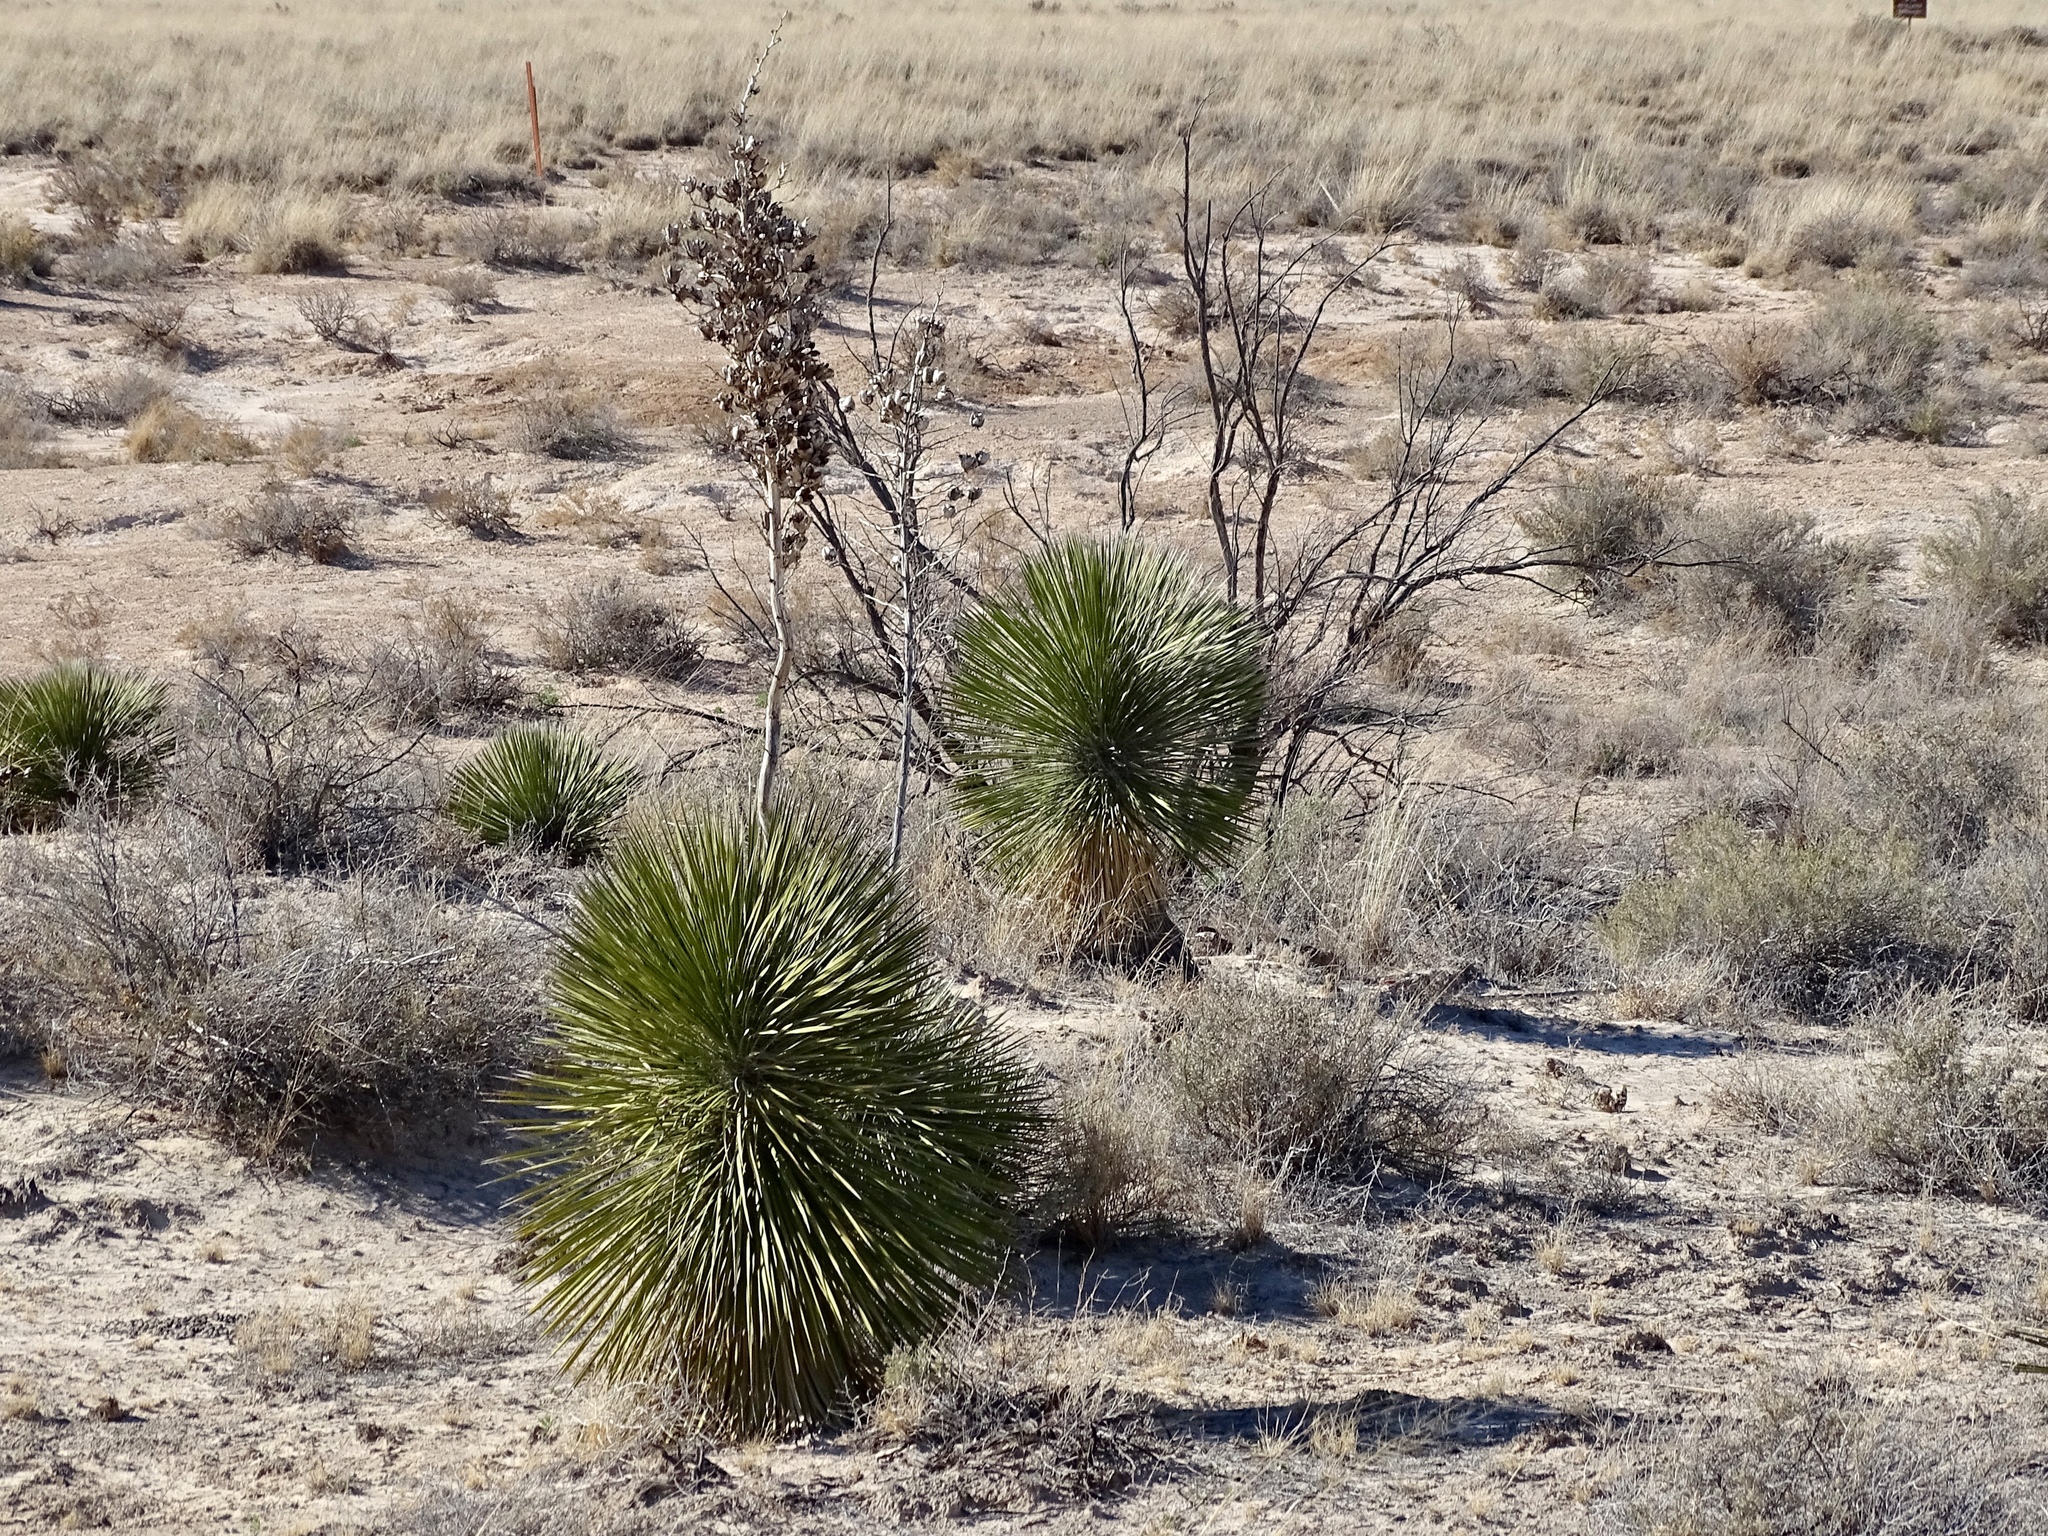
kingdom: Plantae
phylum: Tracheophyta
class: Liliopsida
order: Asparagales
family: Asparagaceae
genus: Yucca
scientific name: Yucca elata
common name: Palmella
